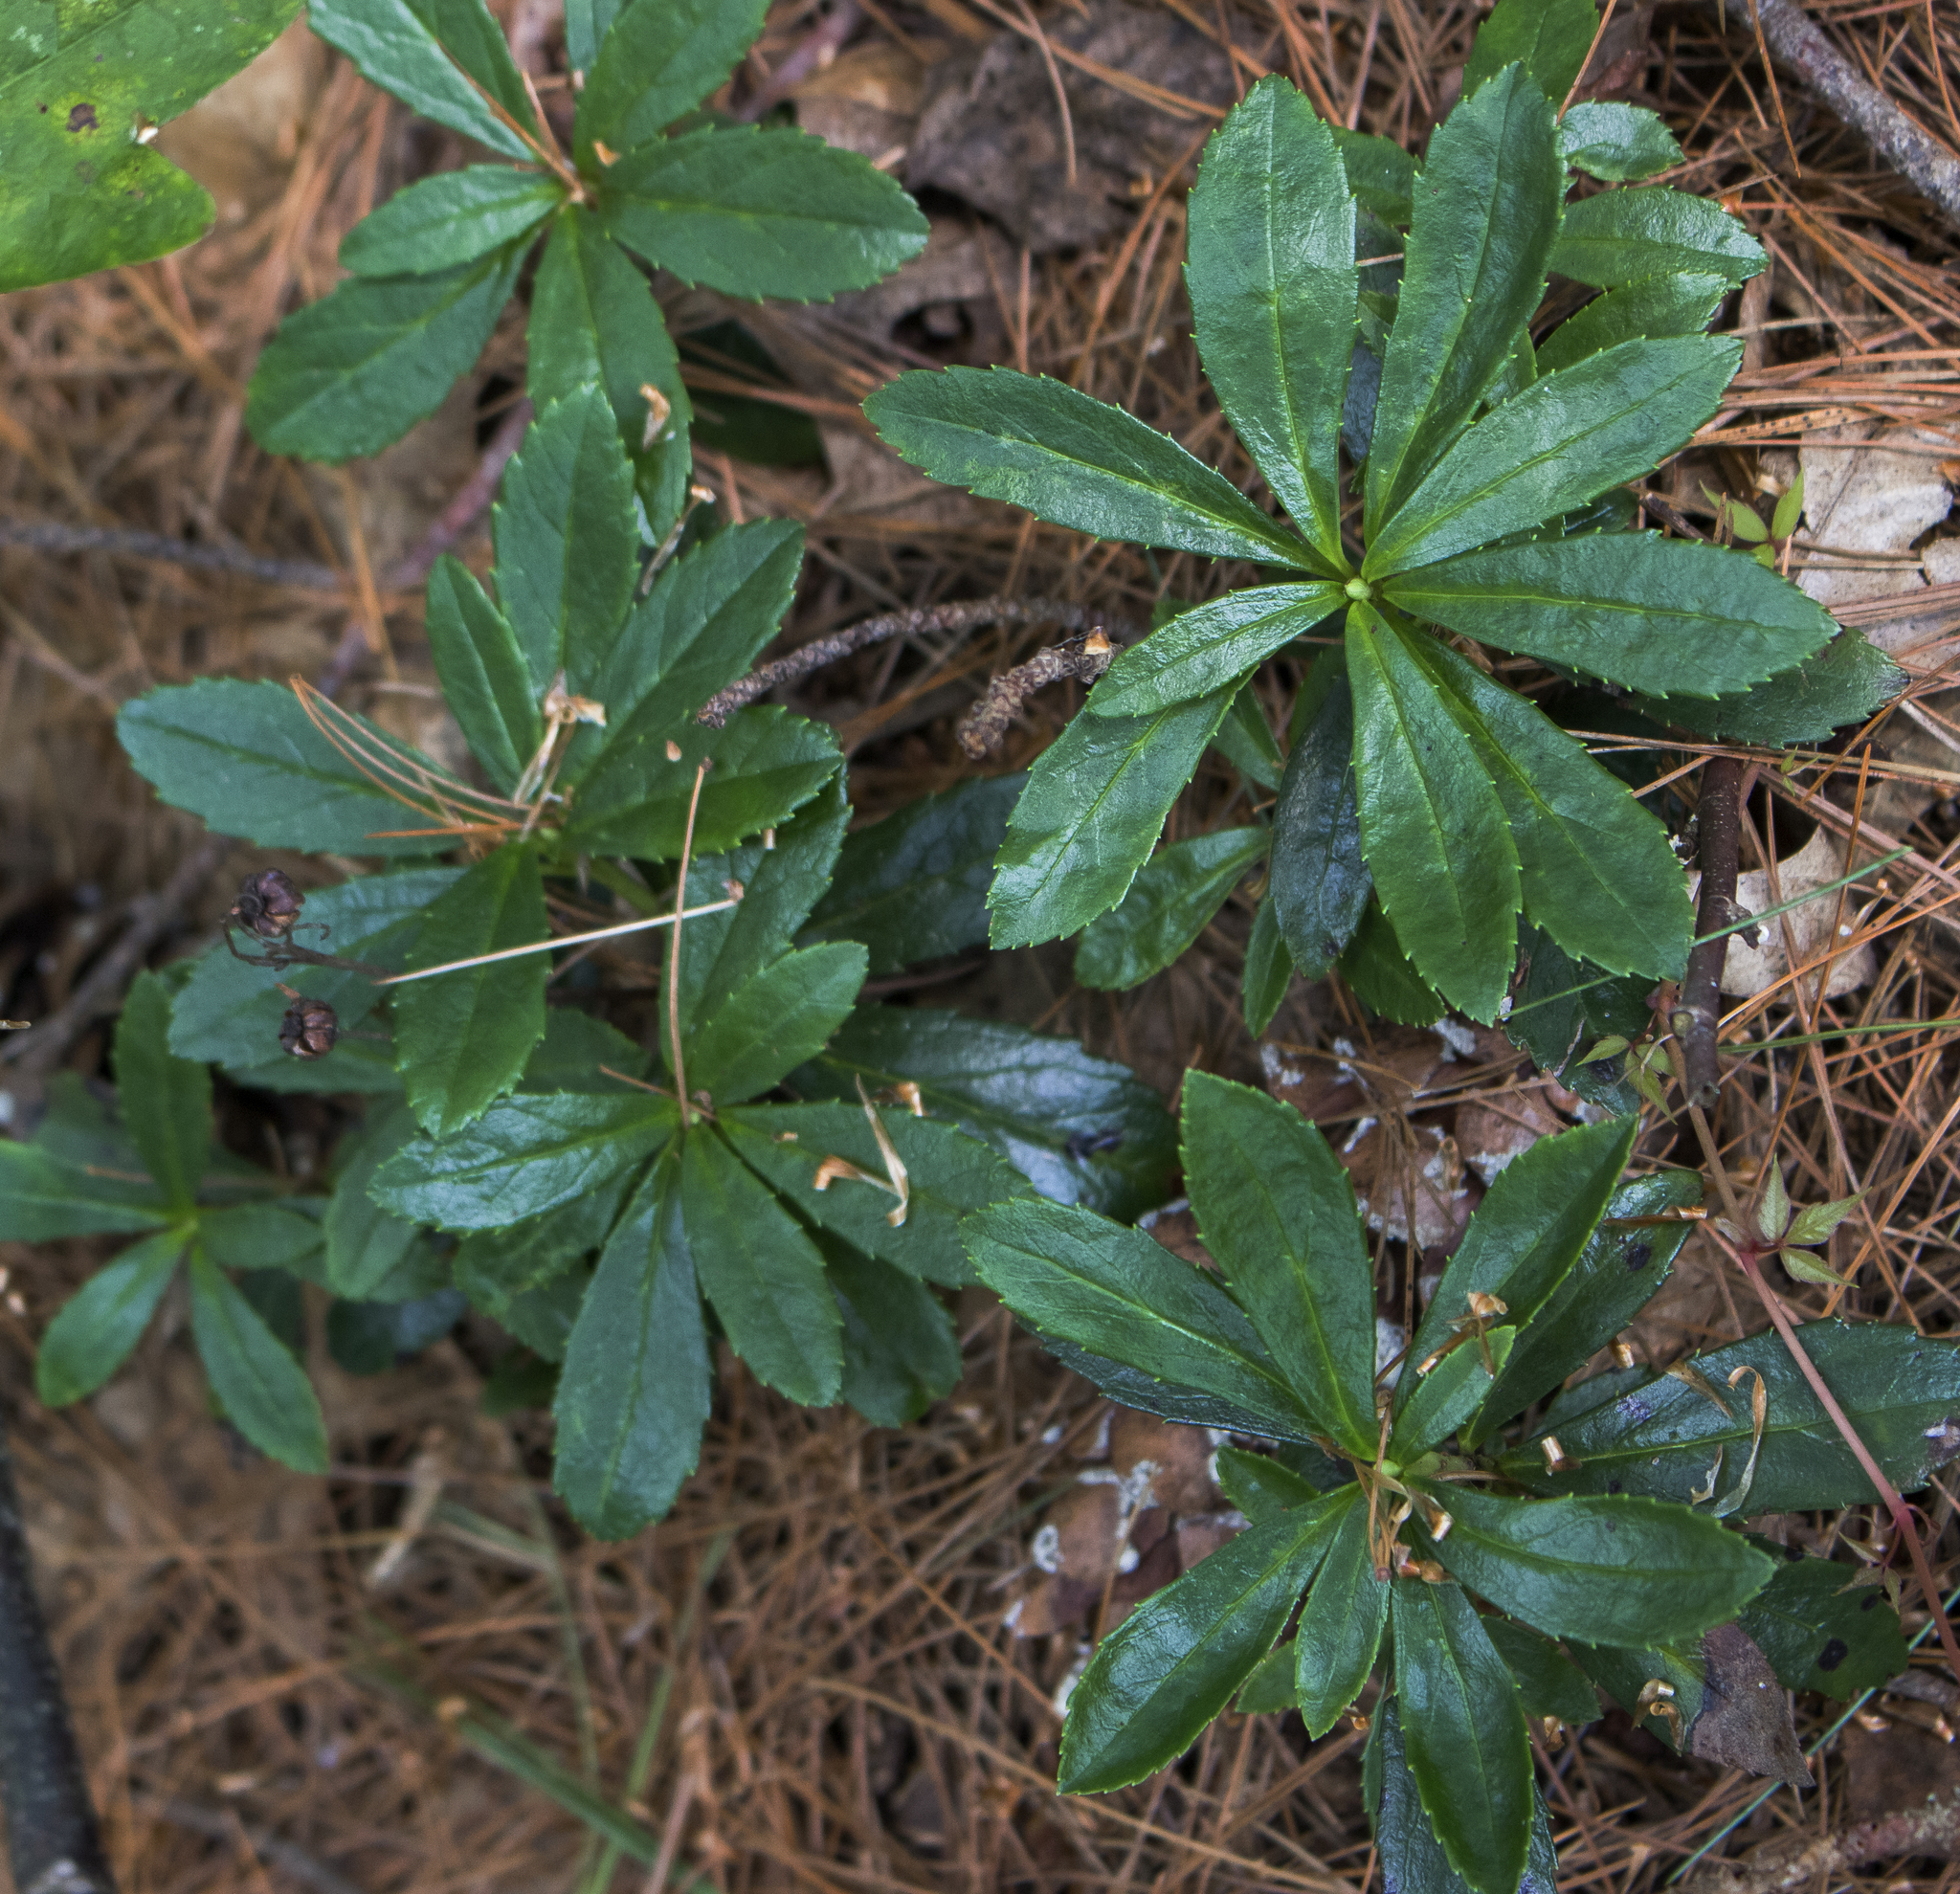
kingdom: Plantae
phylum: Tracheophyta
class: Magnoliopsida
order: Ericales
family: Ericaceae
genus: Chimaphila
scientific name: Chimaphila umbellata
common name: Pipsissewa
